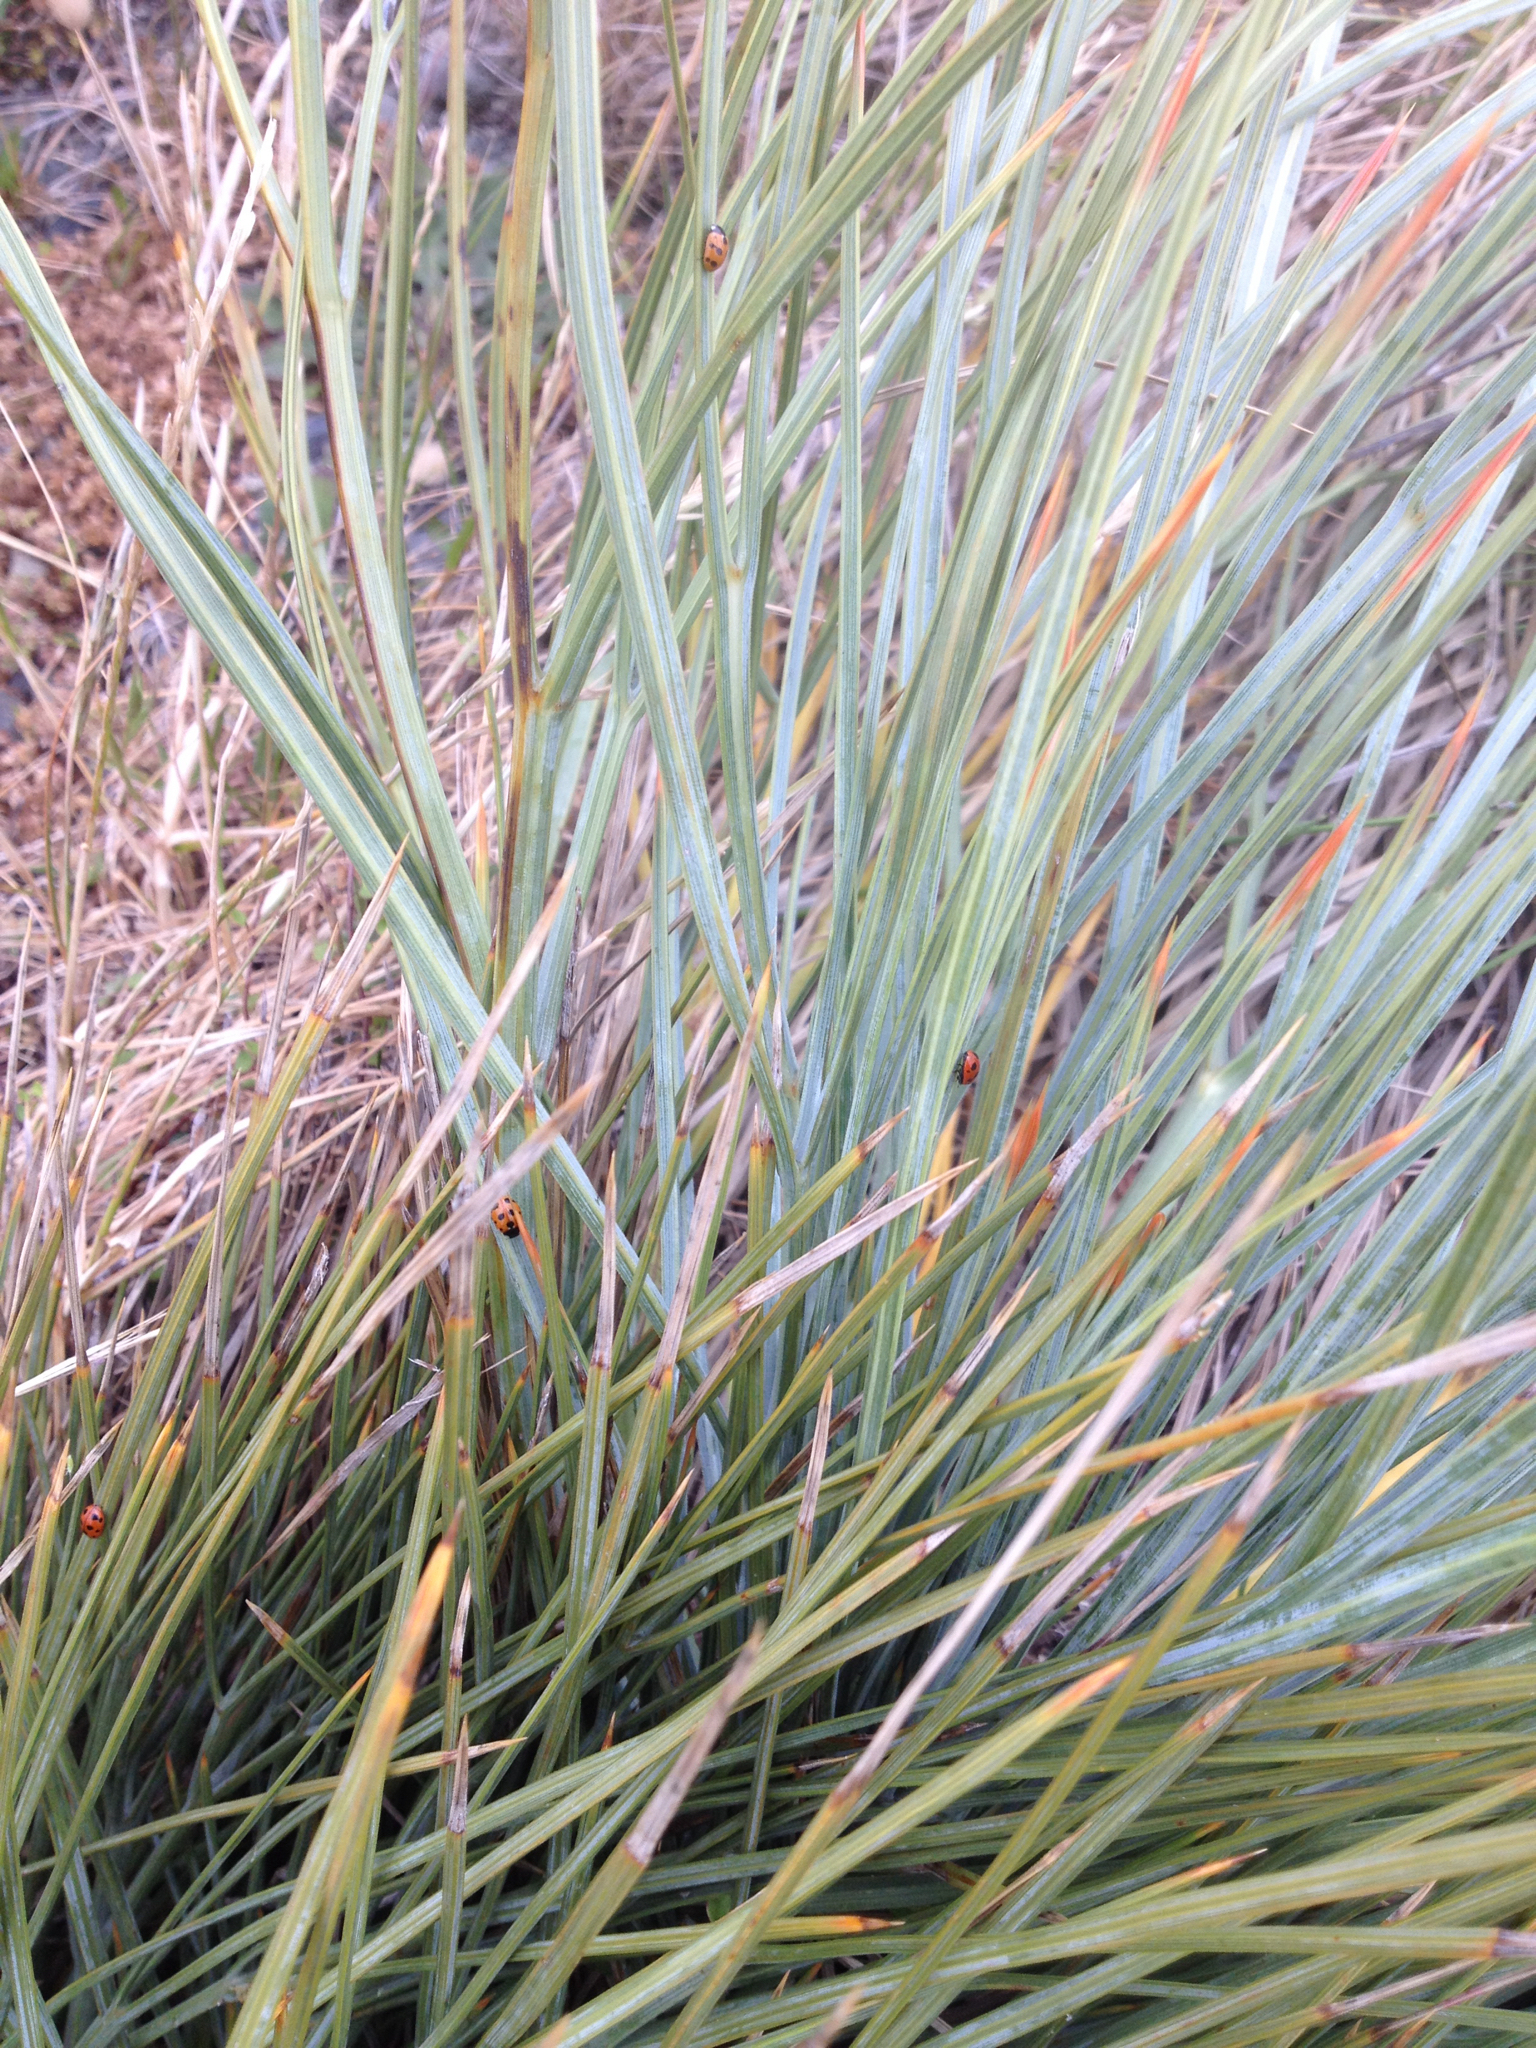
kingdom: Animalia
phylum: Arthropoda
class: Insecta
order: Coleoptera
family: Coccinellidae
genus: Coccinella
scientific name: Coccinella undecimpunctata
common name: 11-spot ladybird
